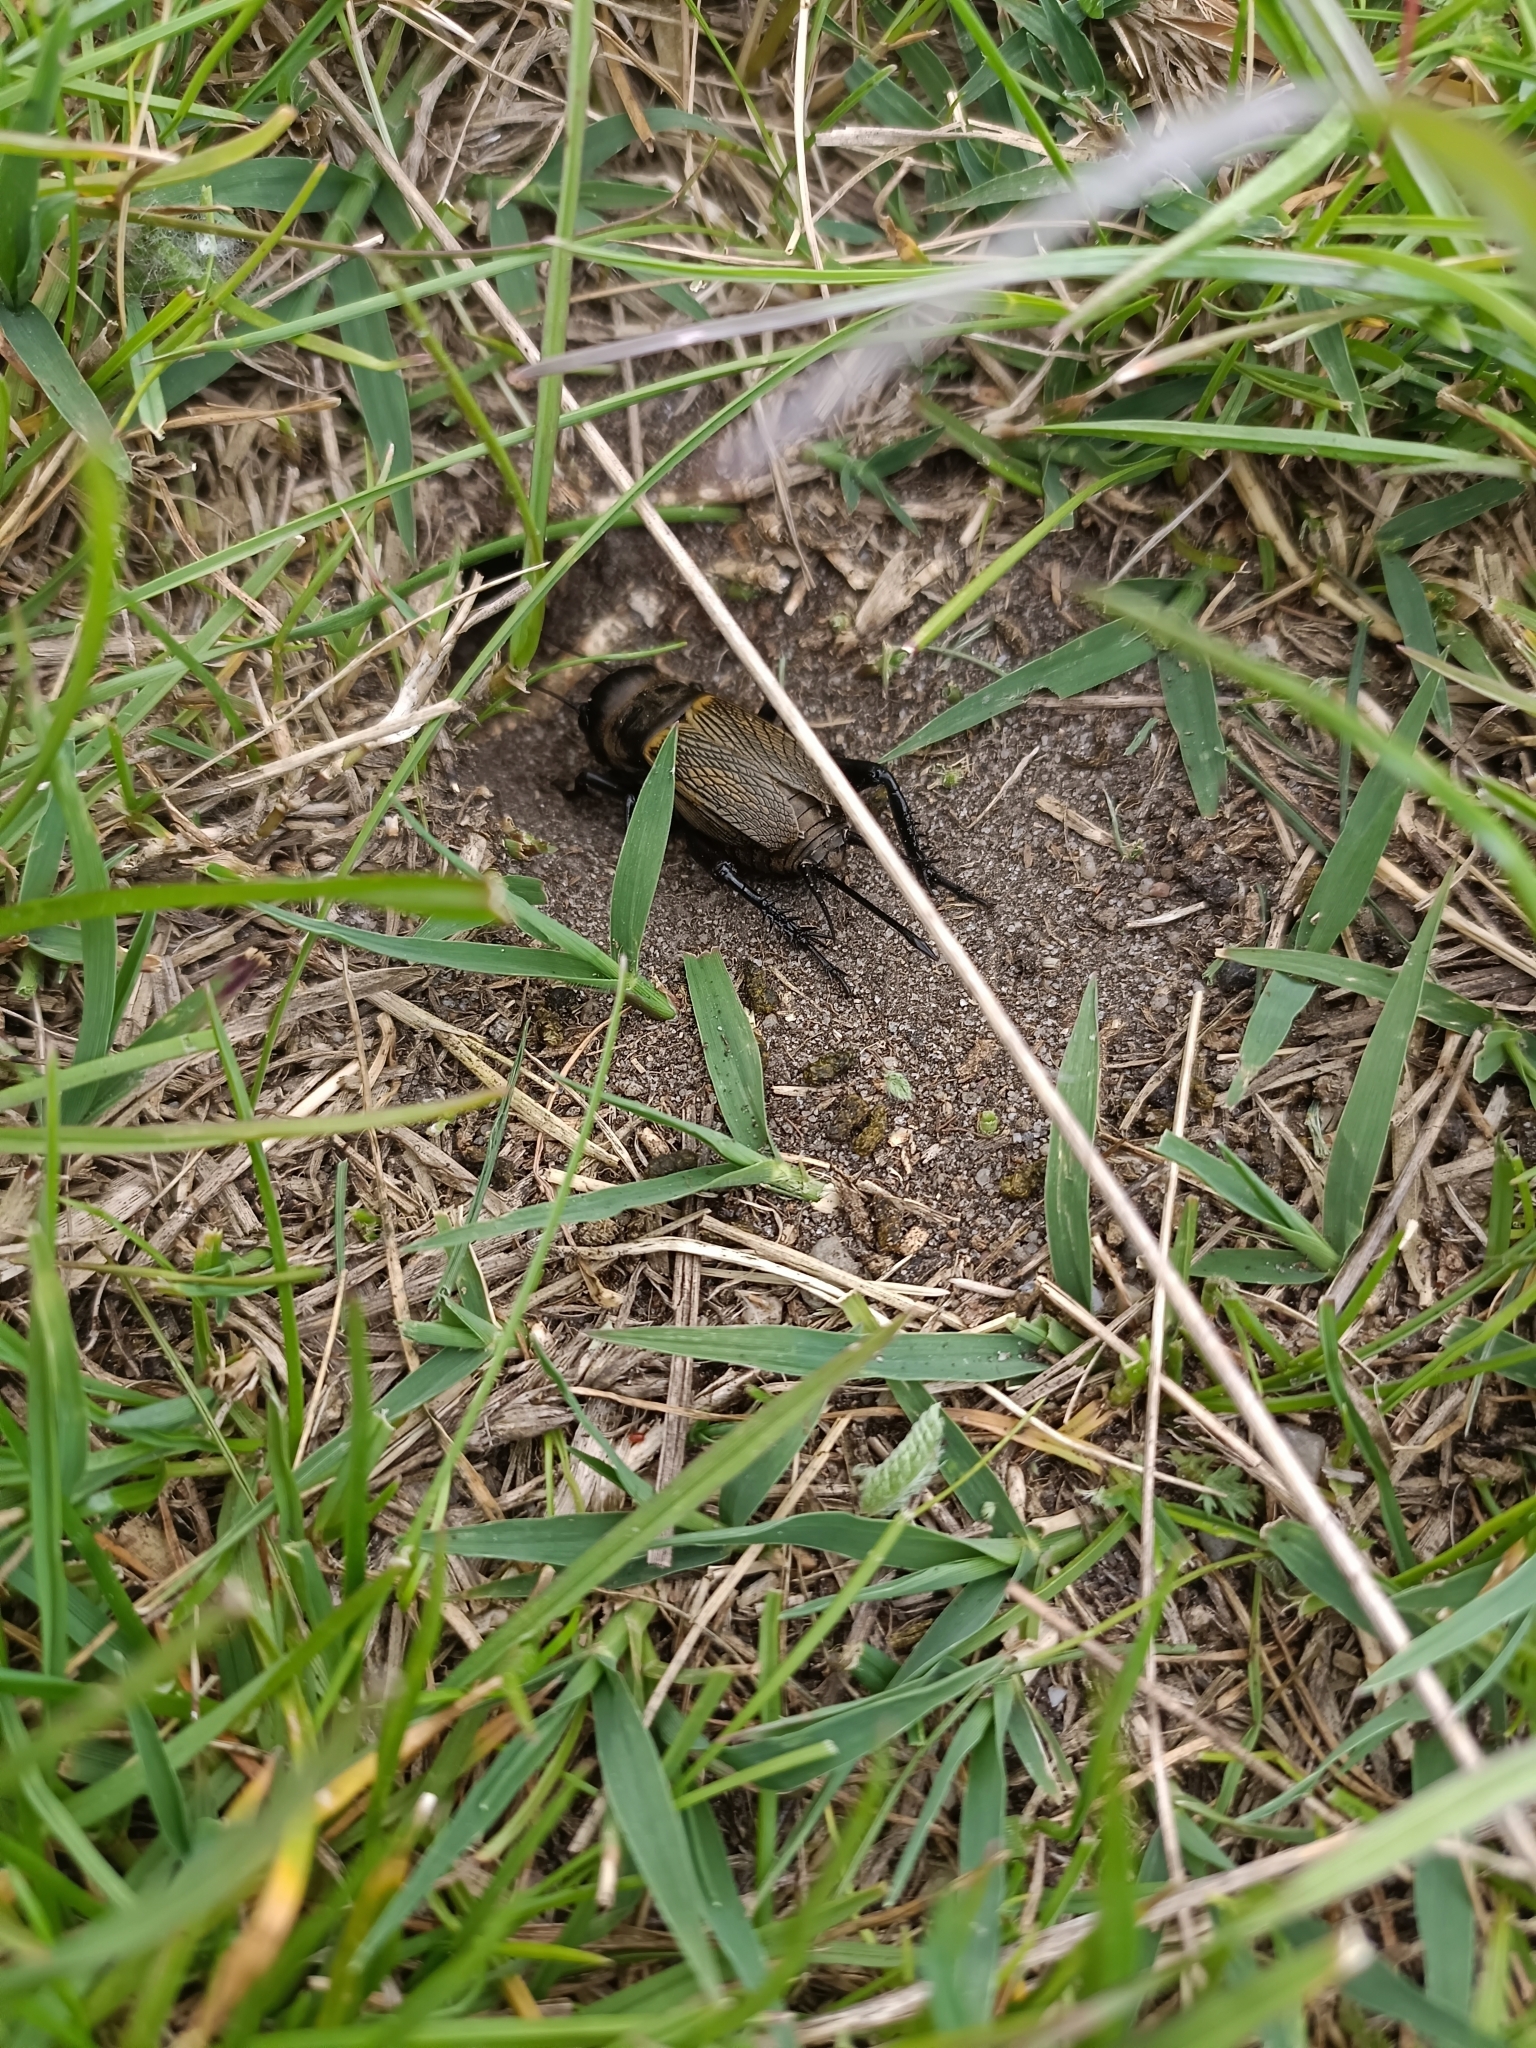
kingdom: Animalia
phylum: Arthropoda
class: Insecta
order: Orthoptera
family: Gryllidae
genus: Gryllus
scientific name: Gryllus campestris
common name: Field cricket
